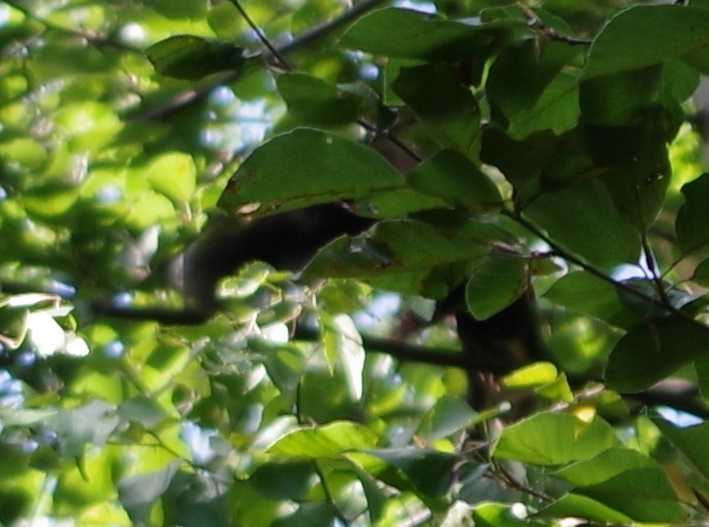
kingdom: Animalia
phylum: Chordata
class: Mammalia
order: Rodentia
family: Sciuridae
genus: Sciurus
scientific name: Sciurus vulgaris
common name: Eurasian red squirrel
